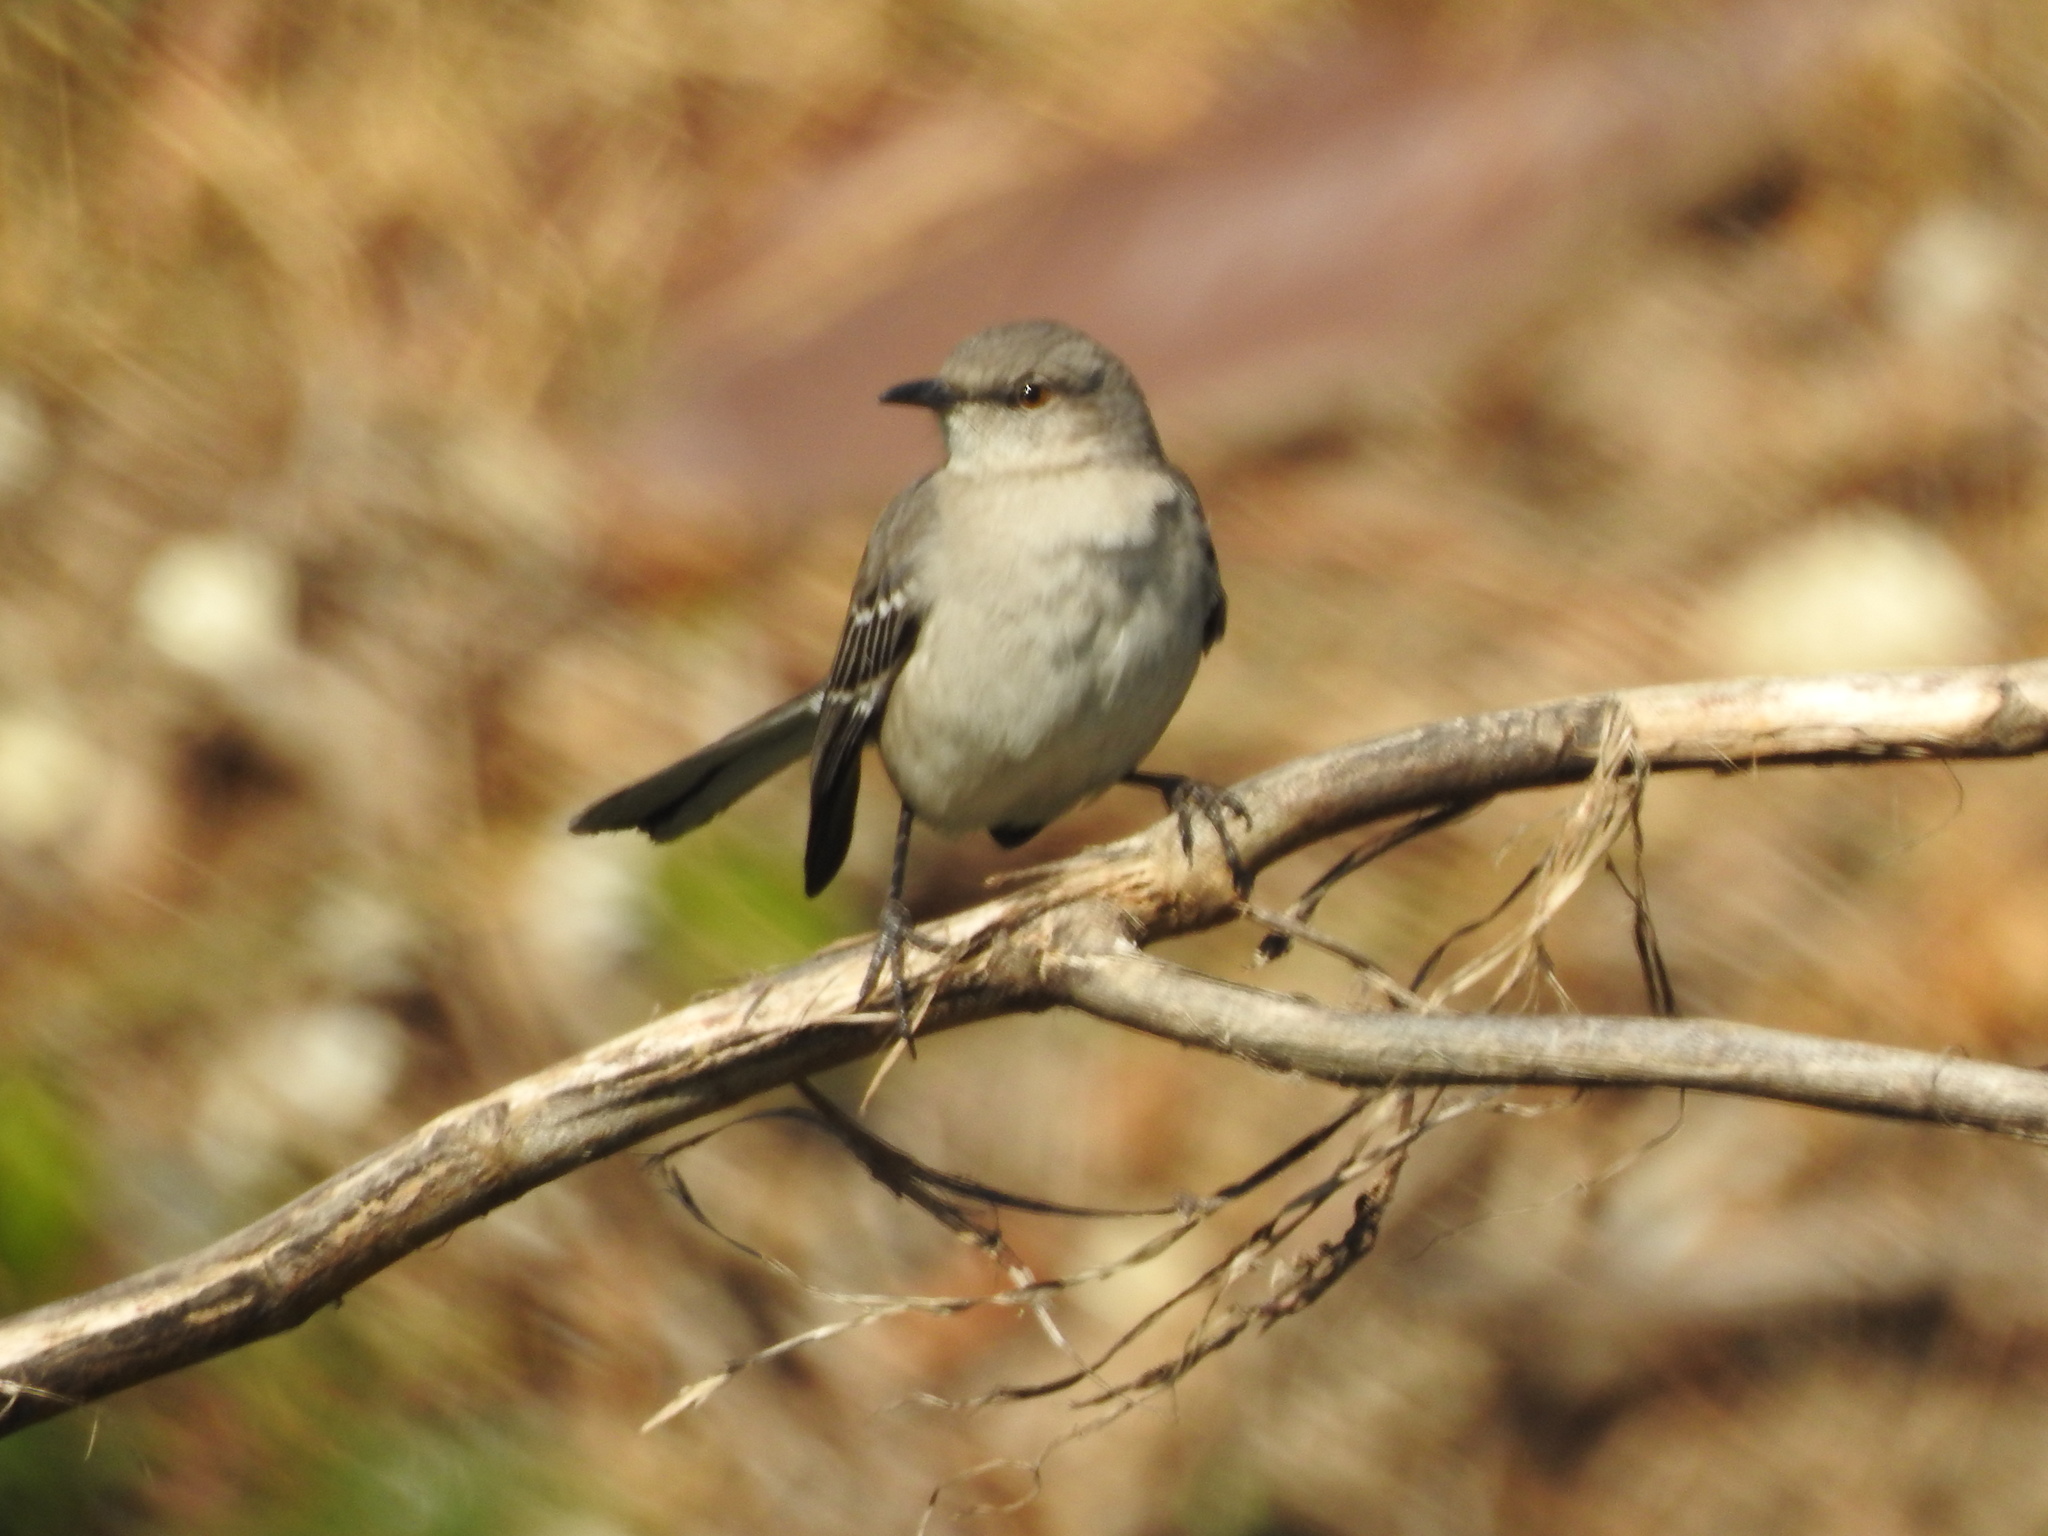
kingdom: Animalia
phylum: Chordata
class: Aves
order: Passeriformes
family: Mimidae
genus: Mimus
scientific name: Mimus polyglottos
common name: Northern mockingbird
